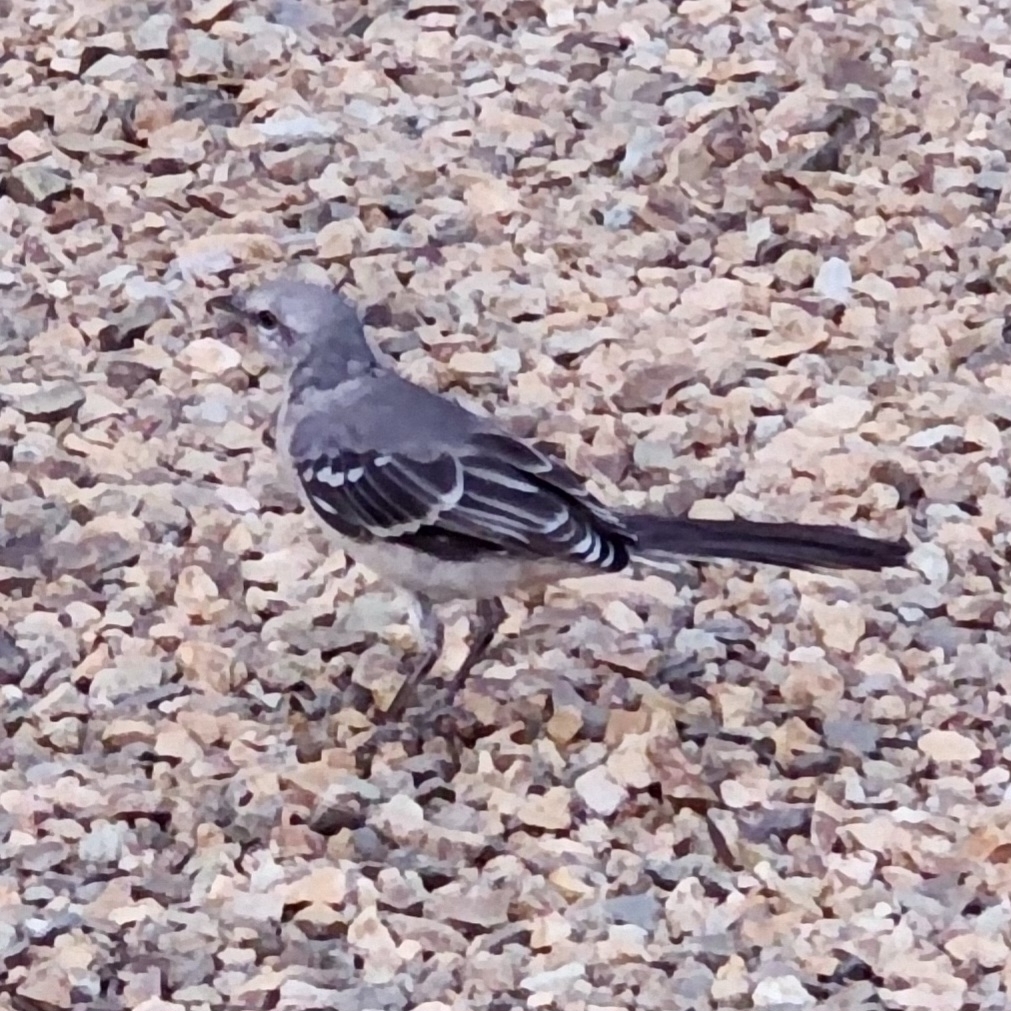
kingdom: Animalia
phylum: Chordata
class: Aves
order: Passeriformes
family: Mimidae
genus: Mimus
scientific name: Mimus polyglottos
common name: Northern mockingbird
